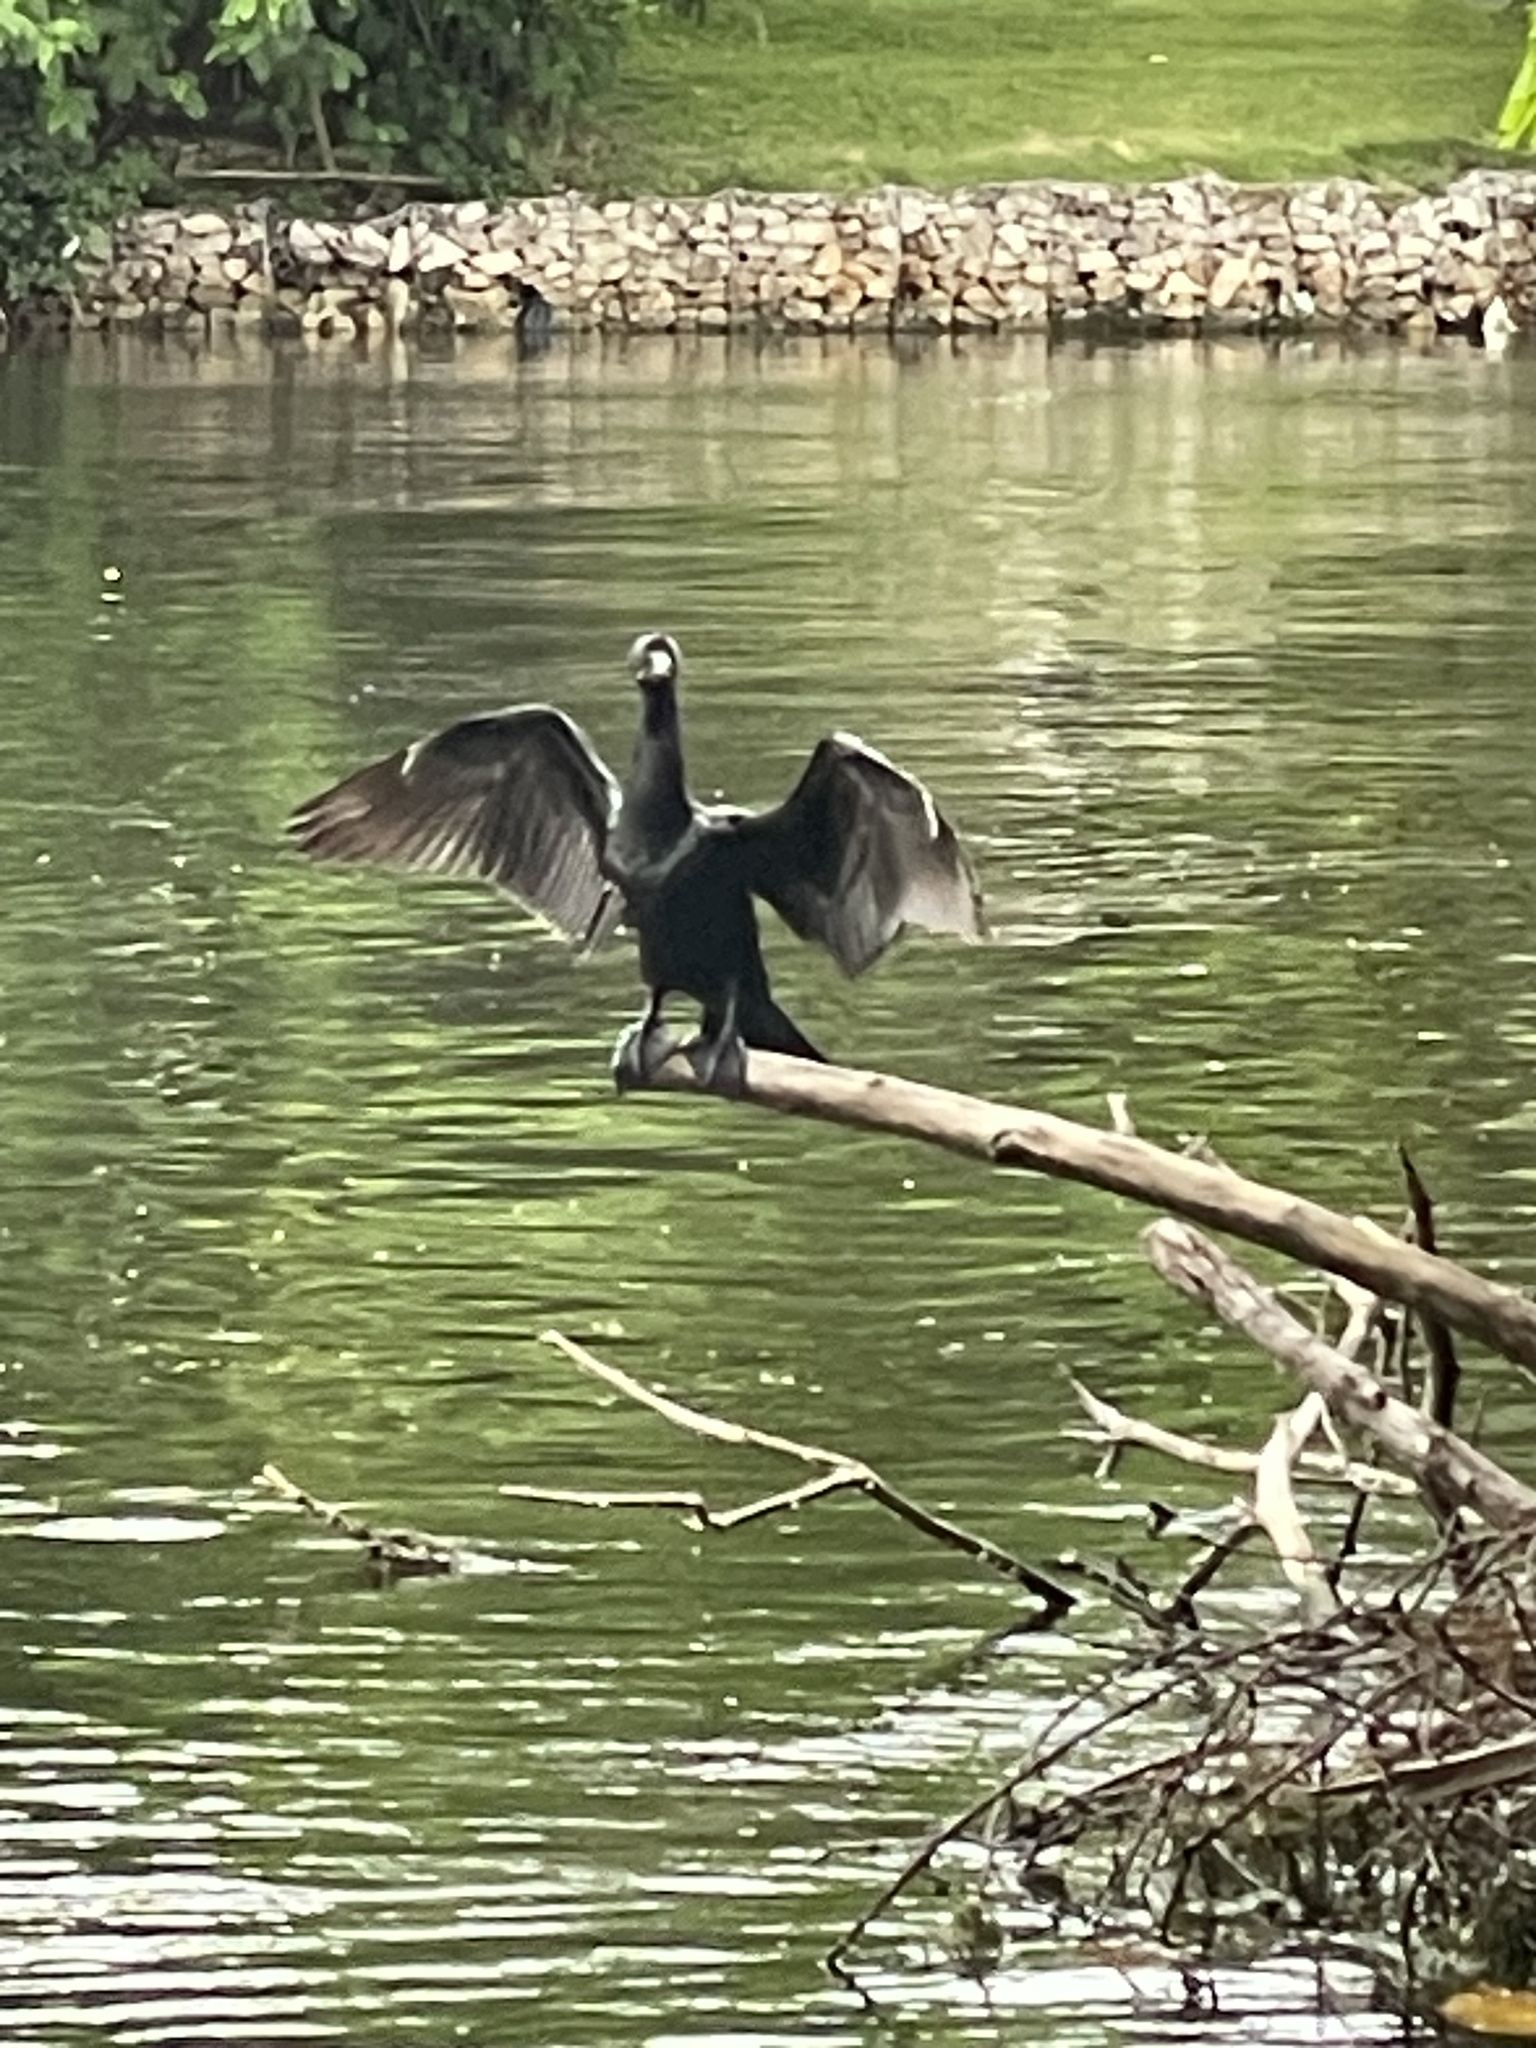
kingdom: Animalia
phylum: Chordata
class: Aves
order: Suliformes
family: Phalacrocoracidae
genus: Phalacrocorax
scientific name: Phalacrocorax brasilianus
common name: Neotropic cormorant
